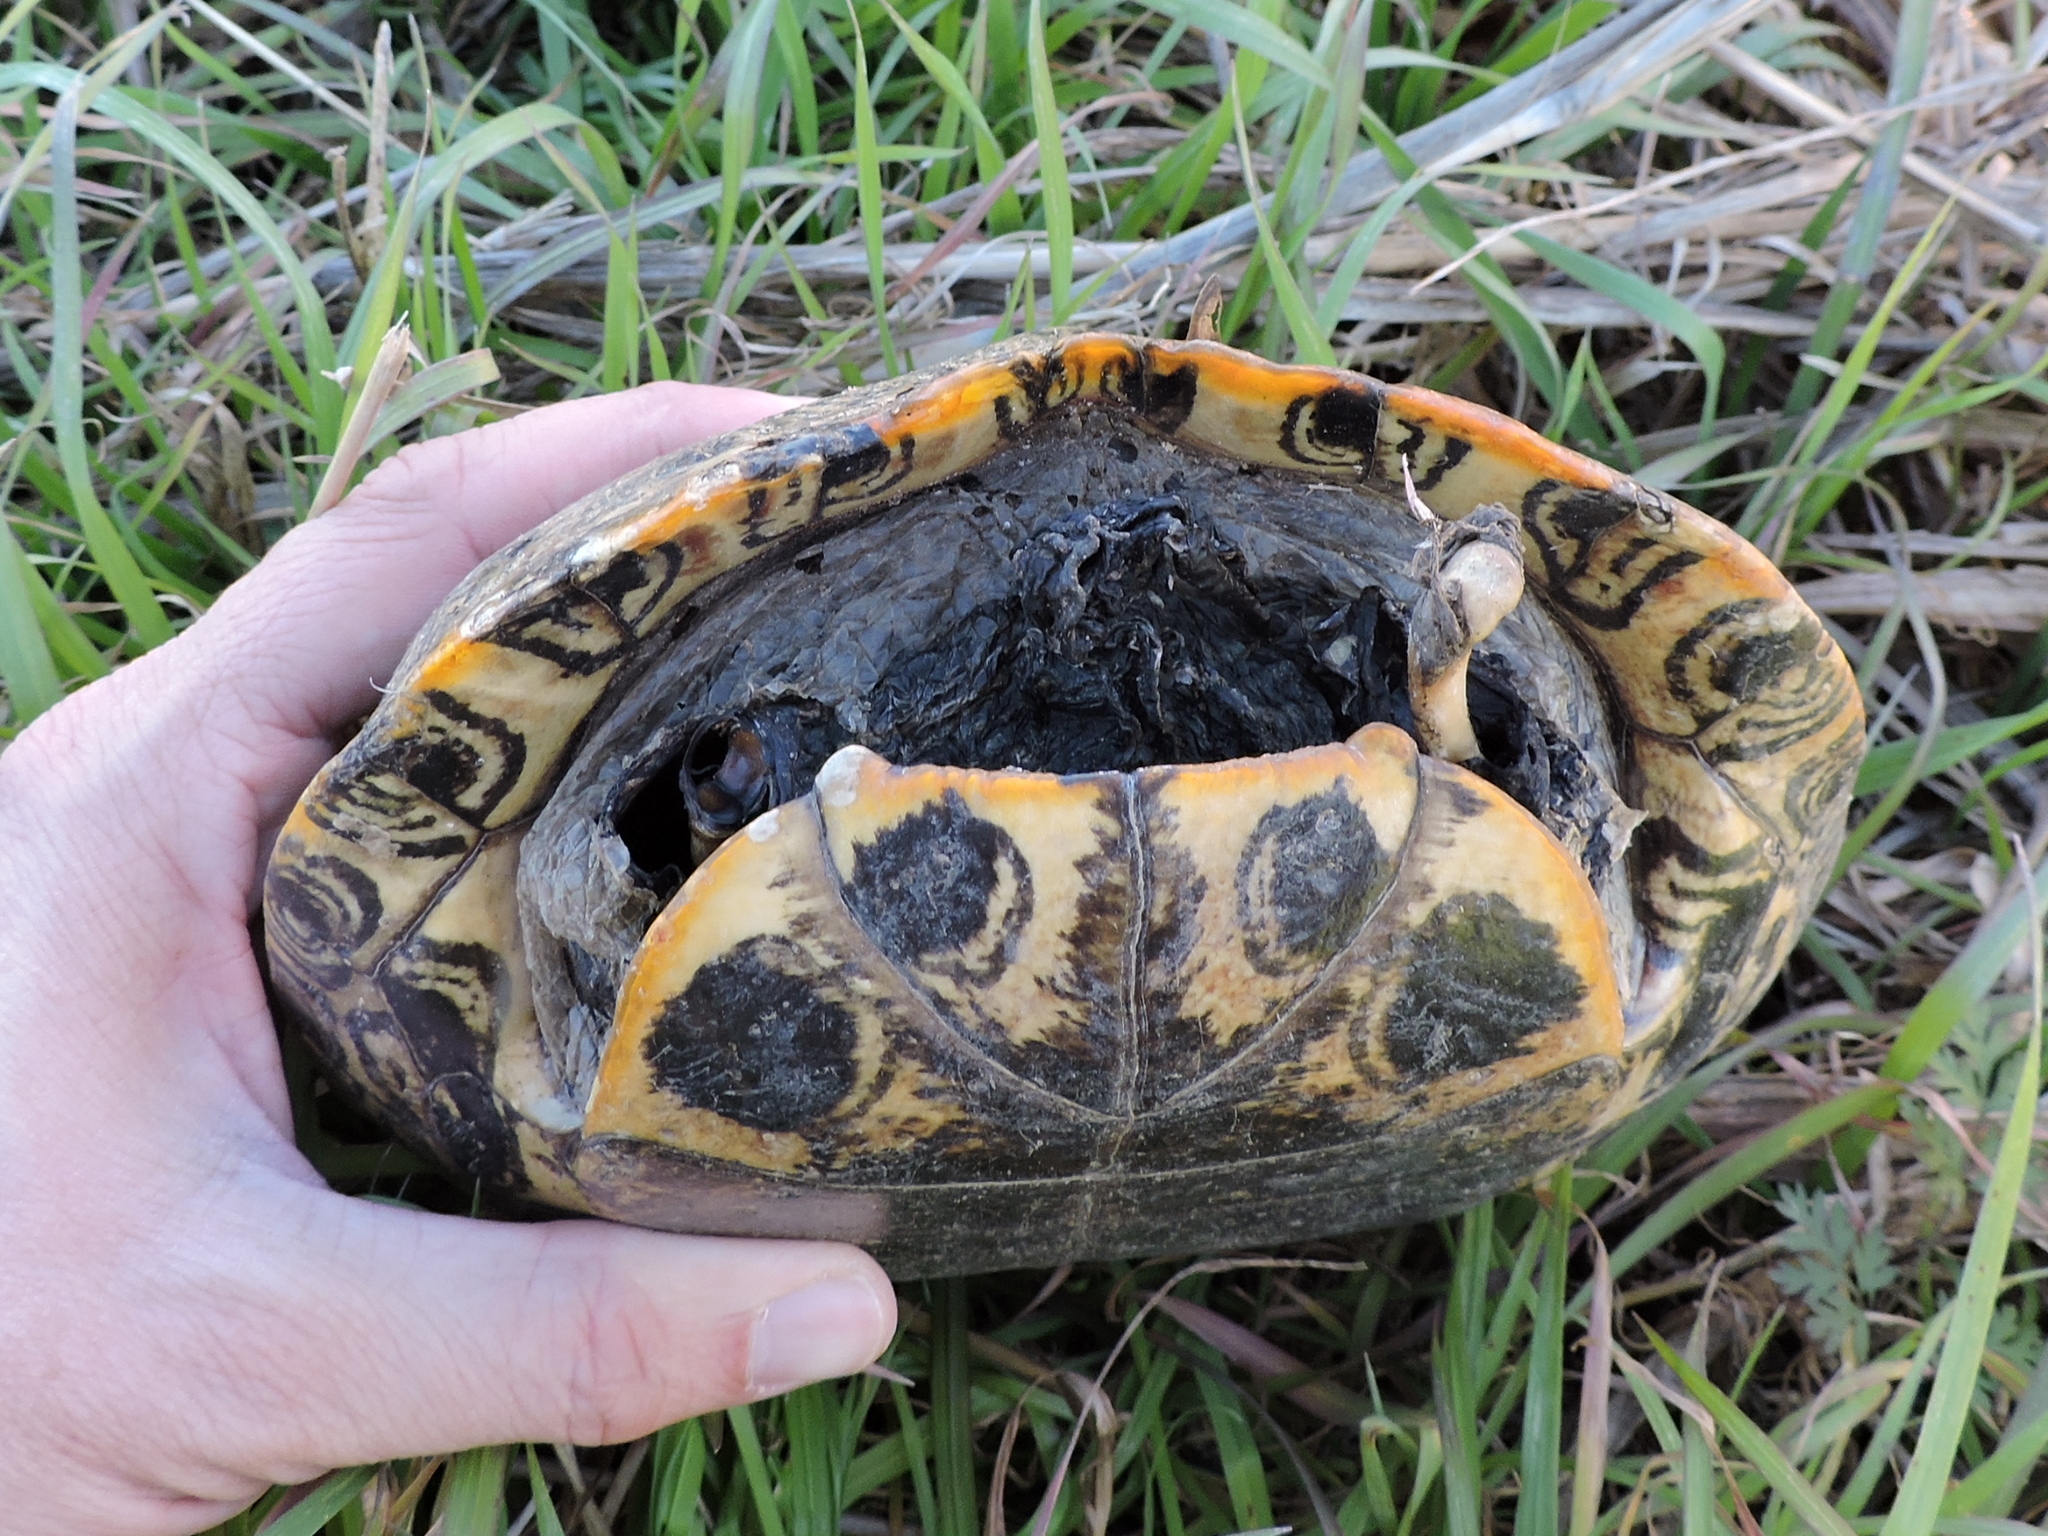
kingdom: Animalia
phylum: Chordata
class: Testudines
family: Emydidae
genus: Trachemys
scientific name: Trachemys scripta
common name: Slider
